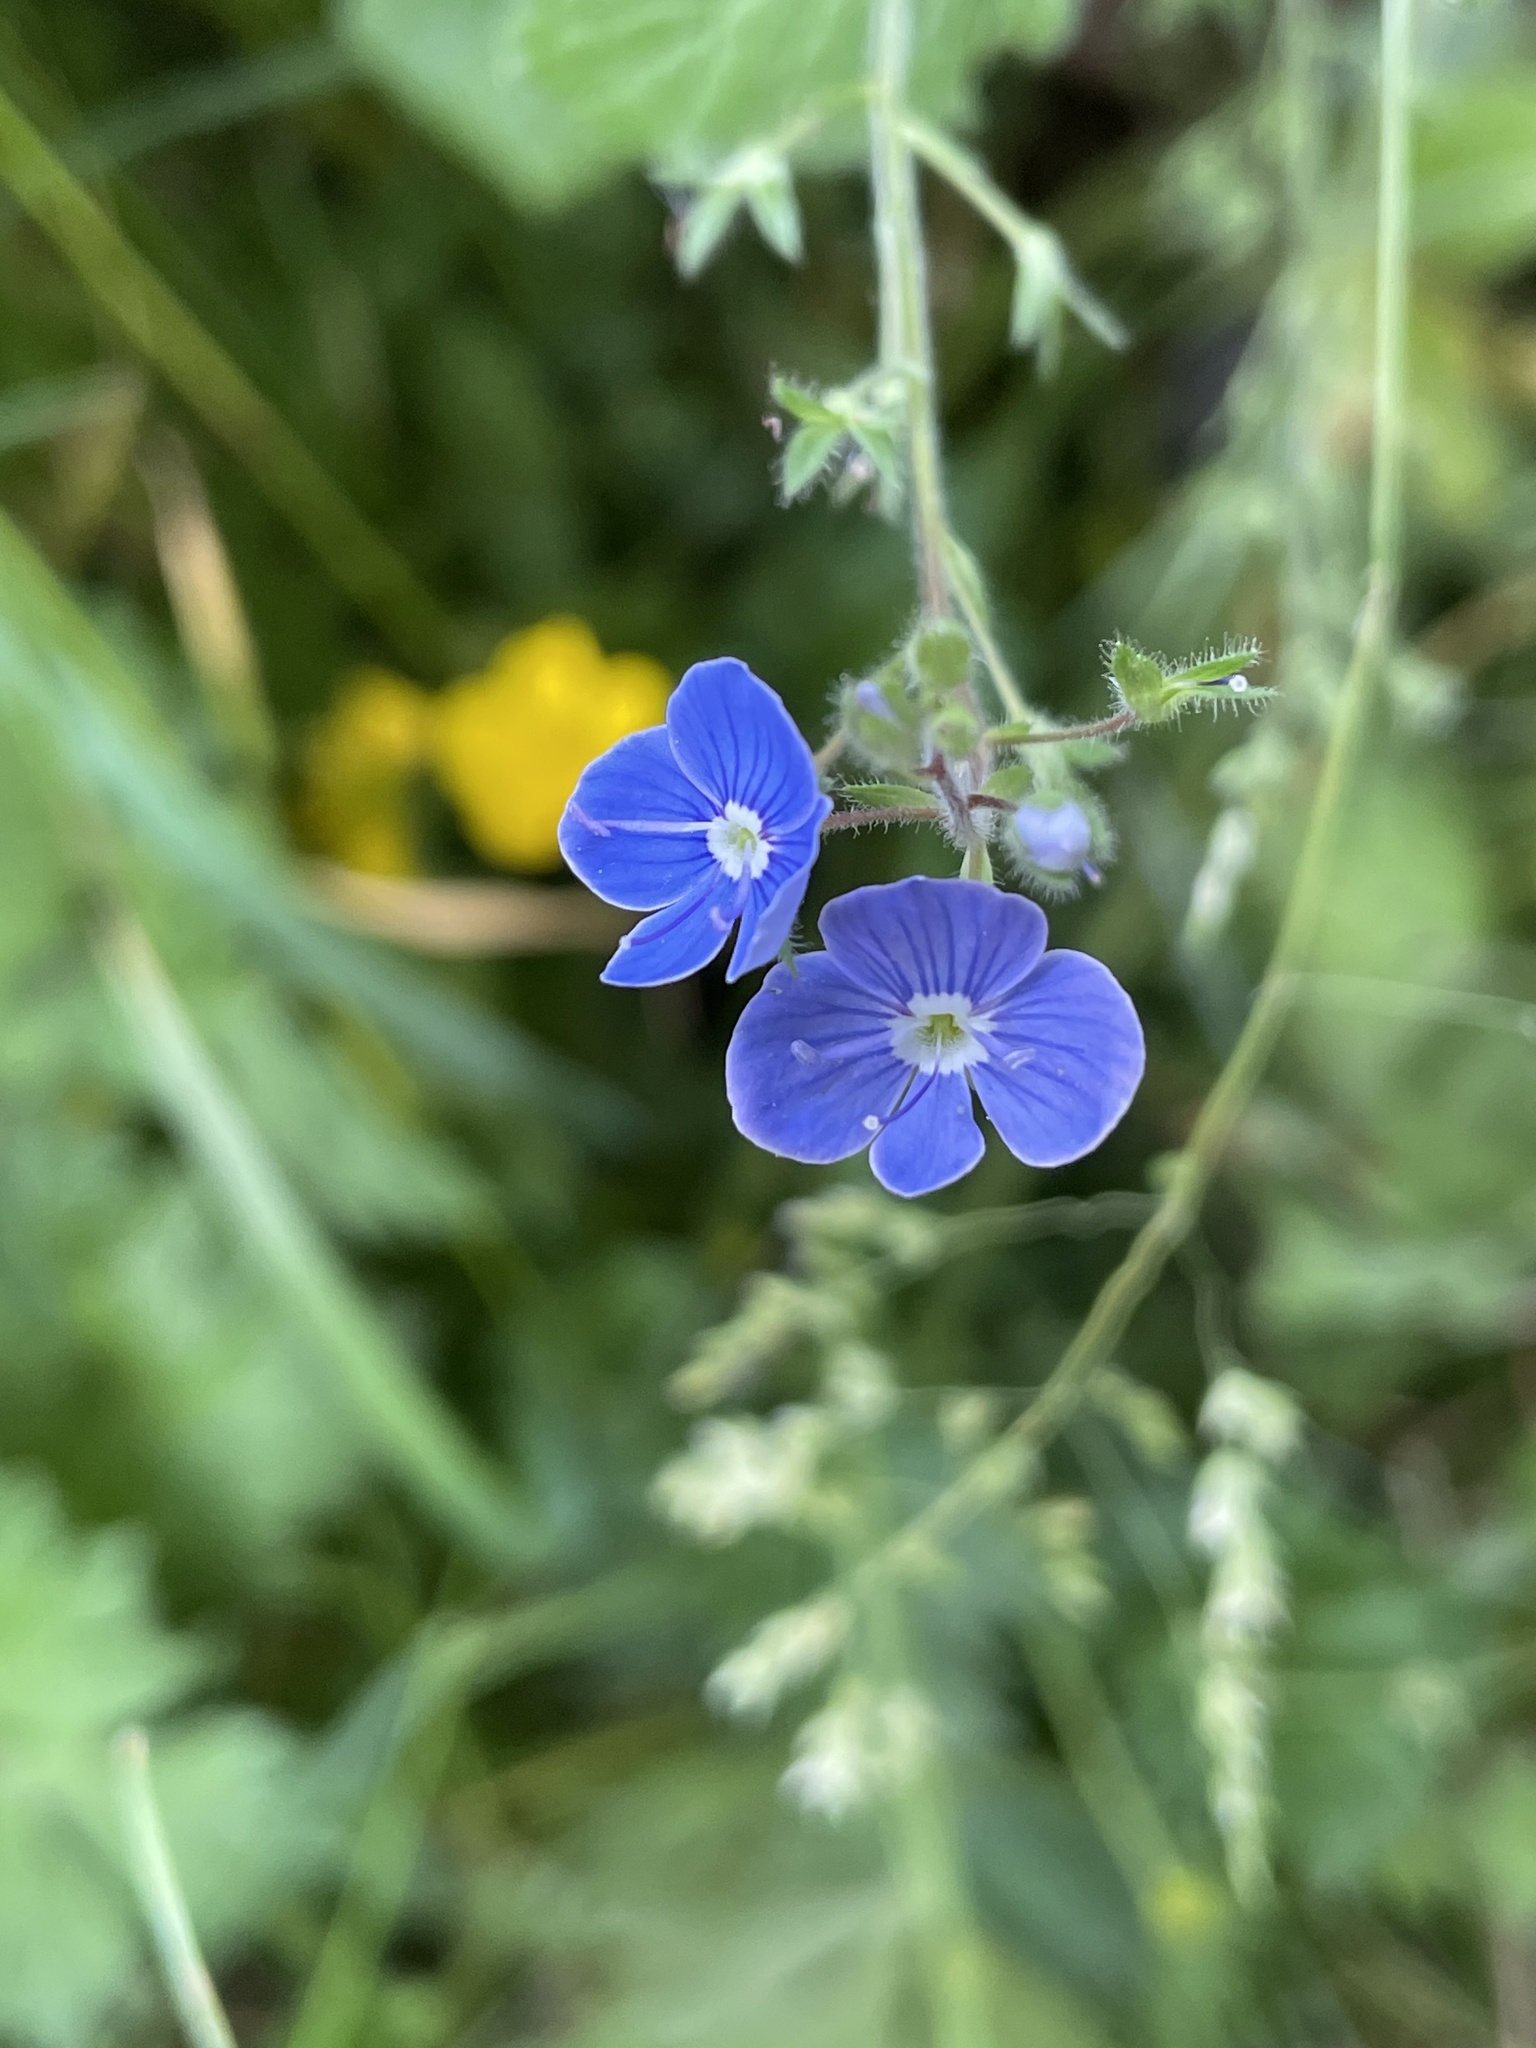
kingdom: Plantae
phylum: Tracheophyta
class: Magnoliopsida
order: Lamiales
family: Plantaginaceae
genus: Veronica
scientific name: Veronica chamaedrys
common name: Germander speedwell
